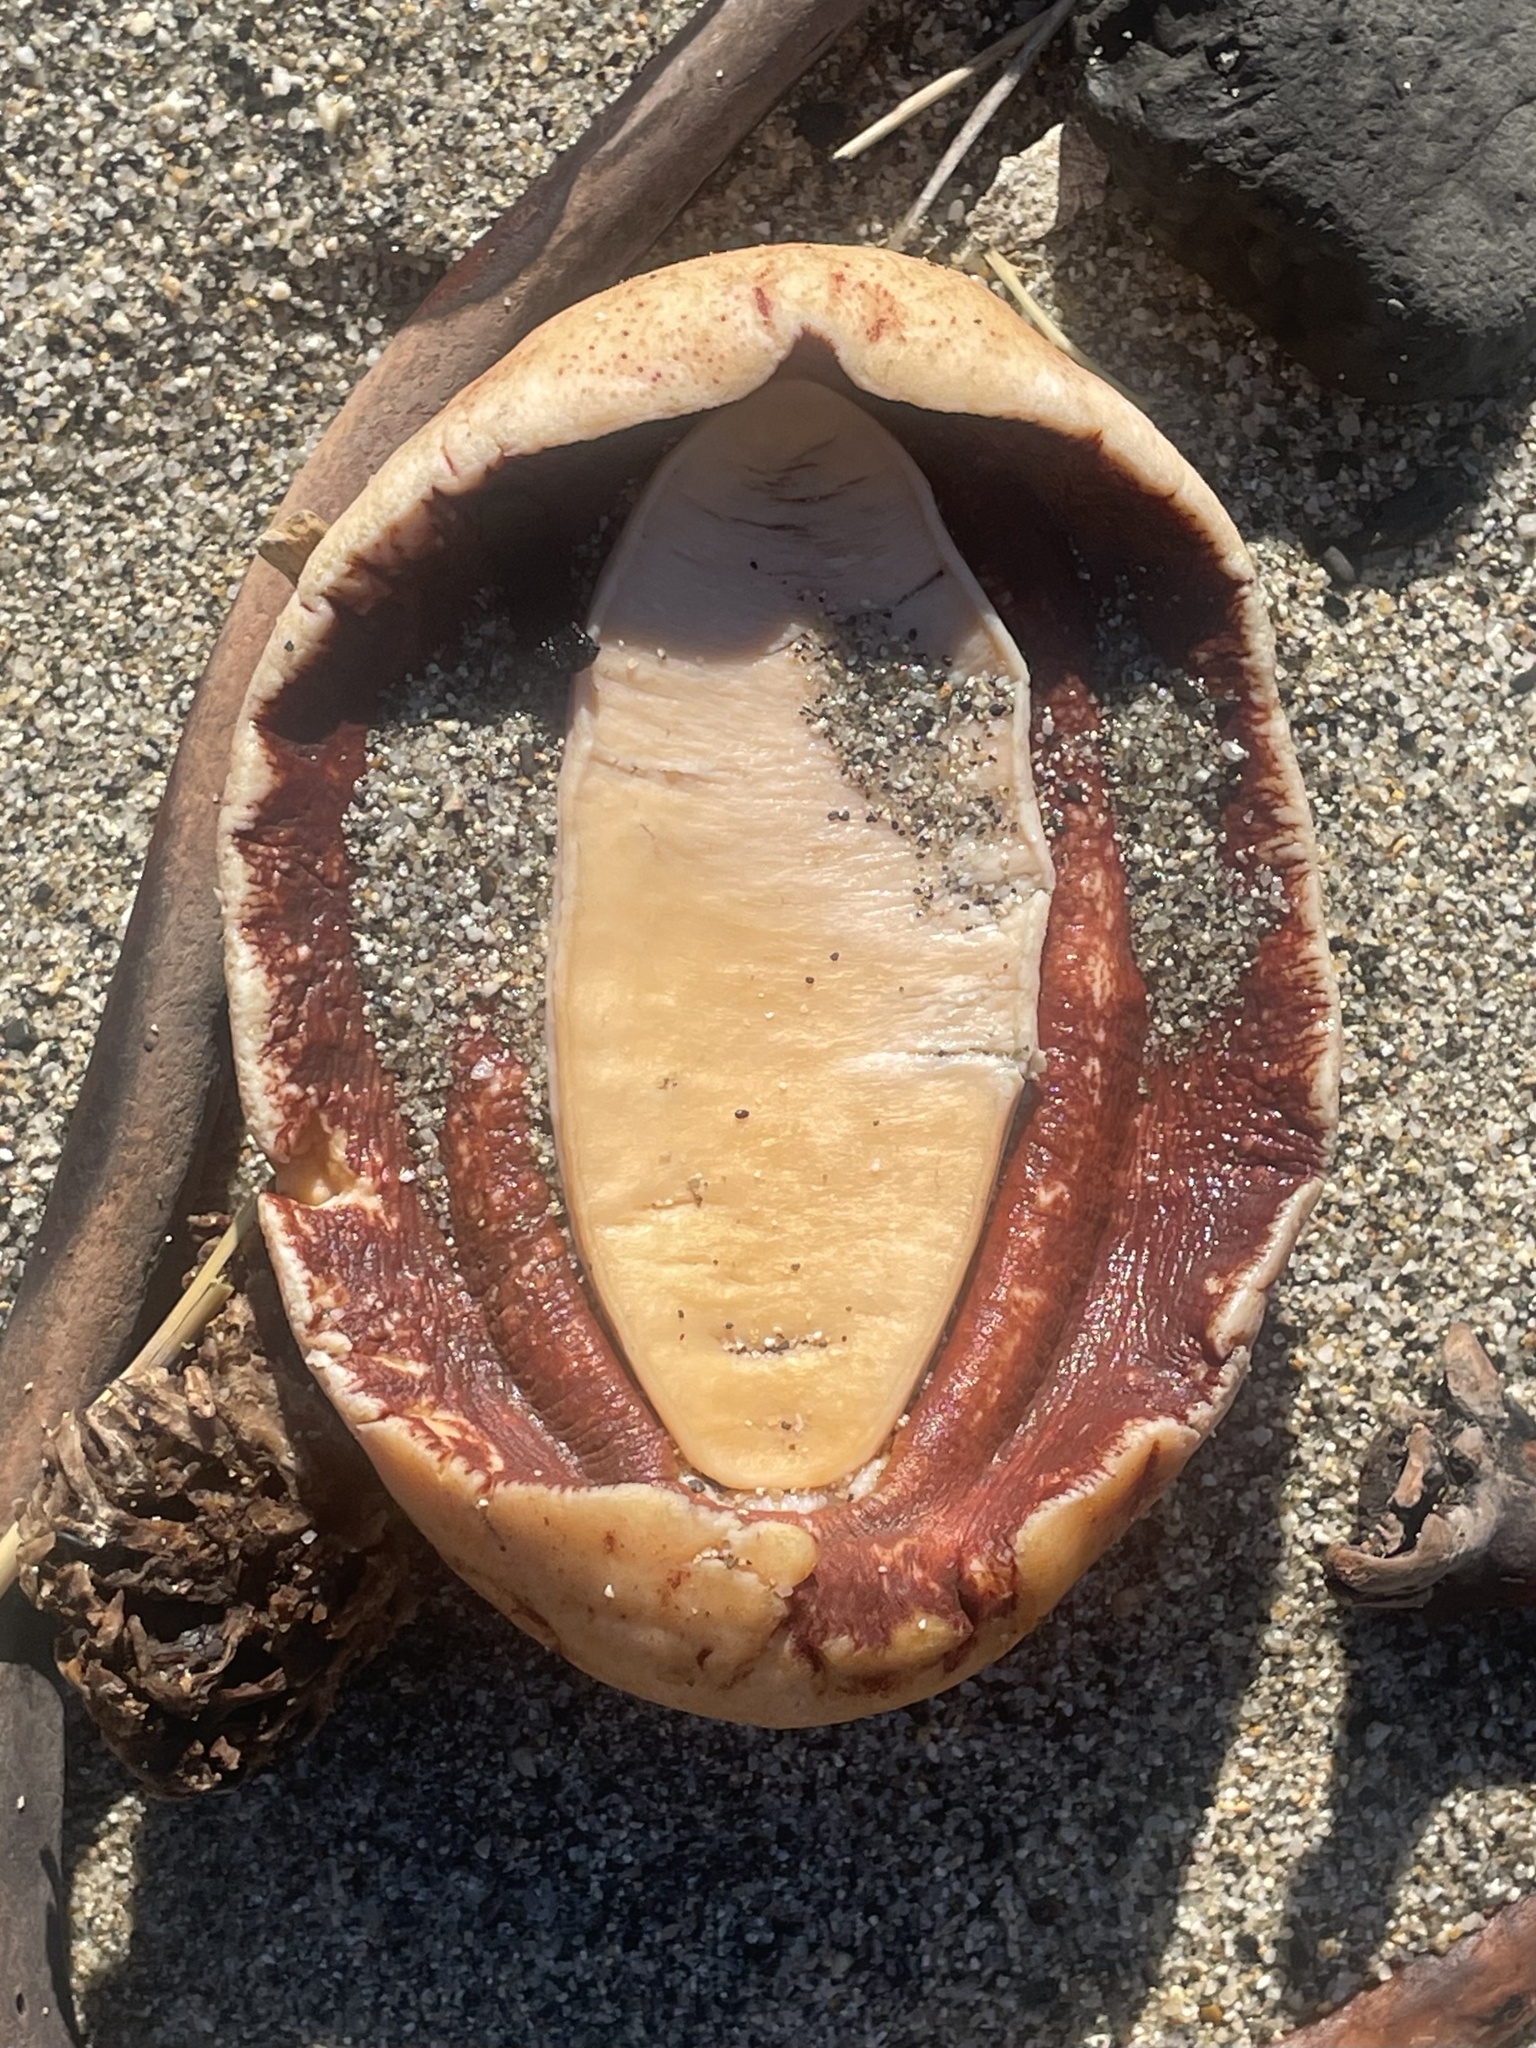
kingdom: Animalia
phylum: Mollusca
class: Polyplacophora
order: Chitonida
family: Acanthochitonidae
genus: Cryptochiton
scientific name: Cryptochiton stelleri
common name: Giant pacific chiton
